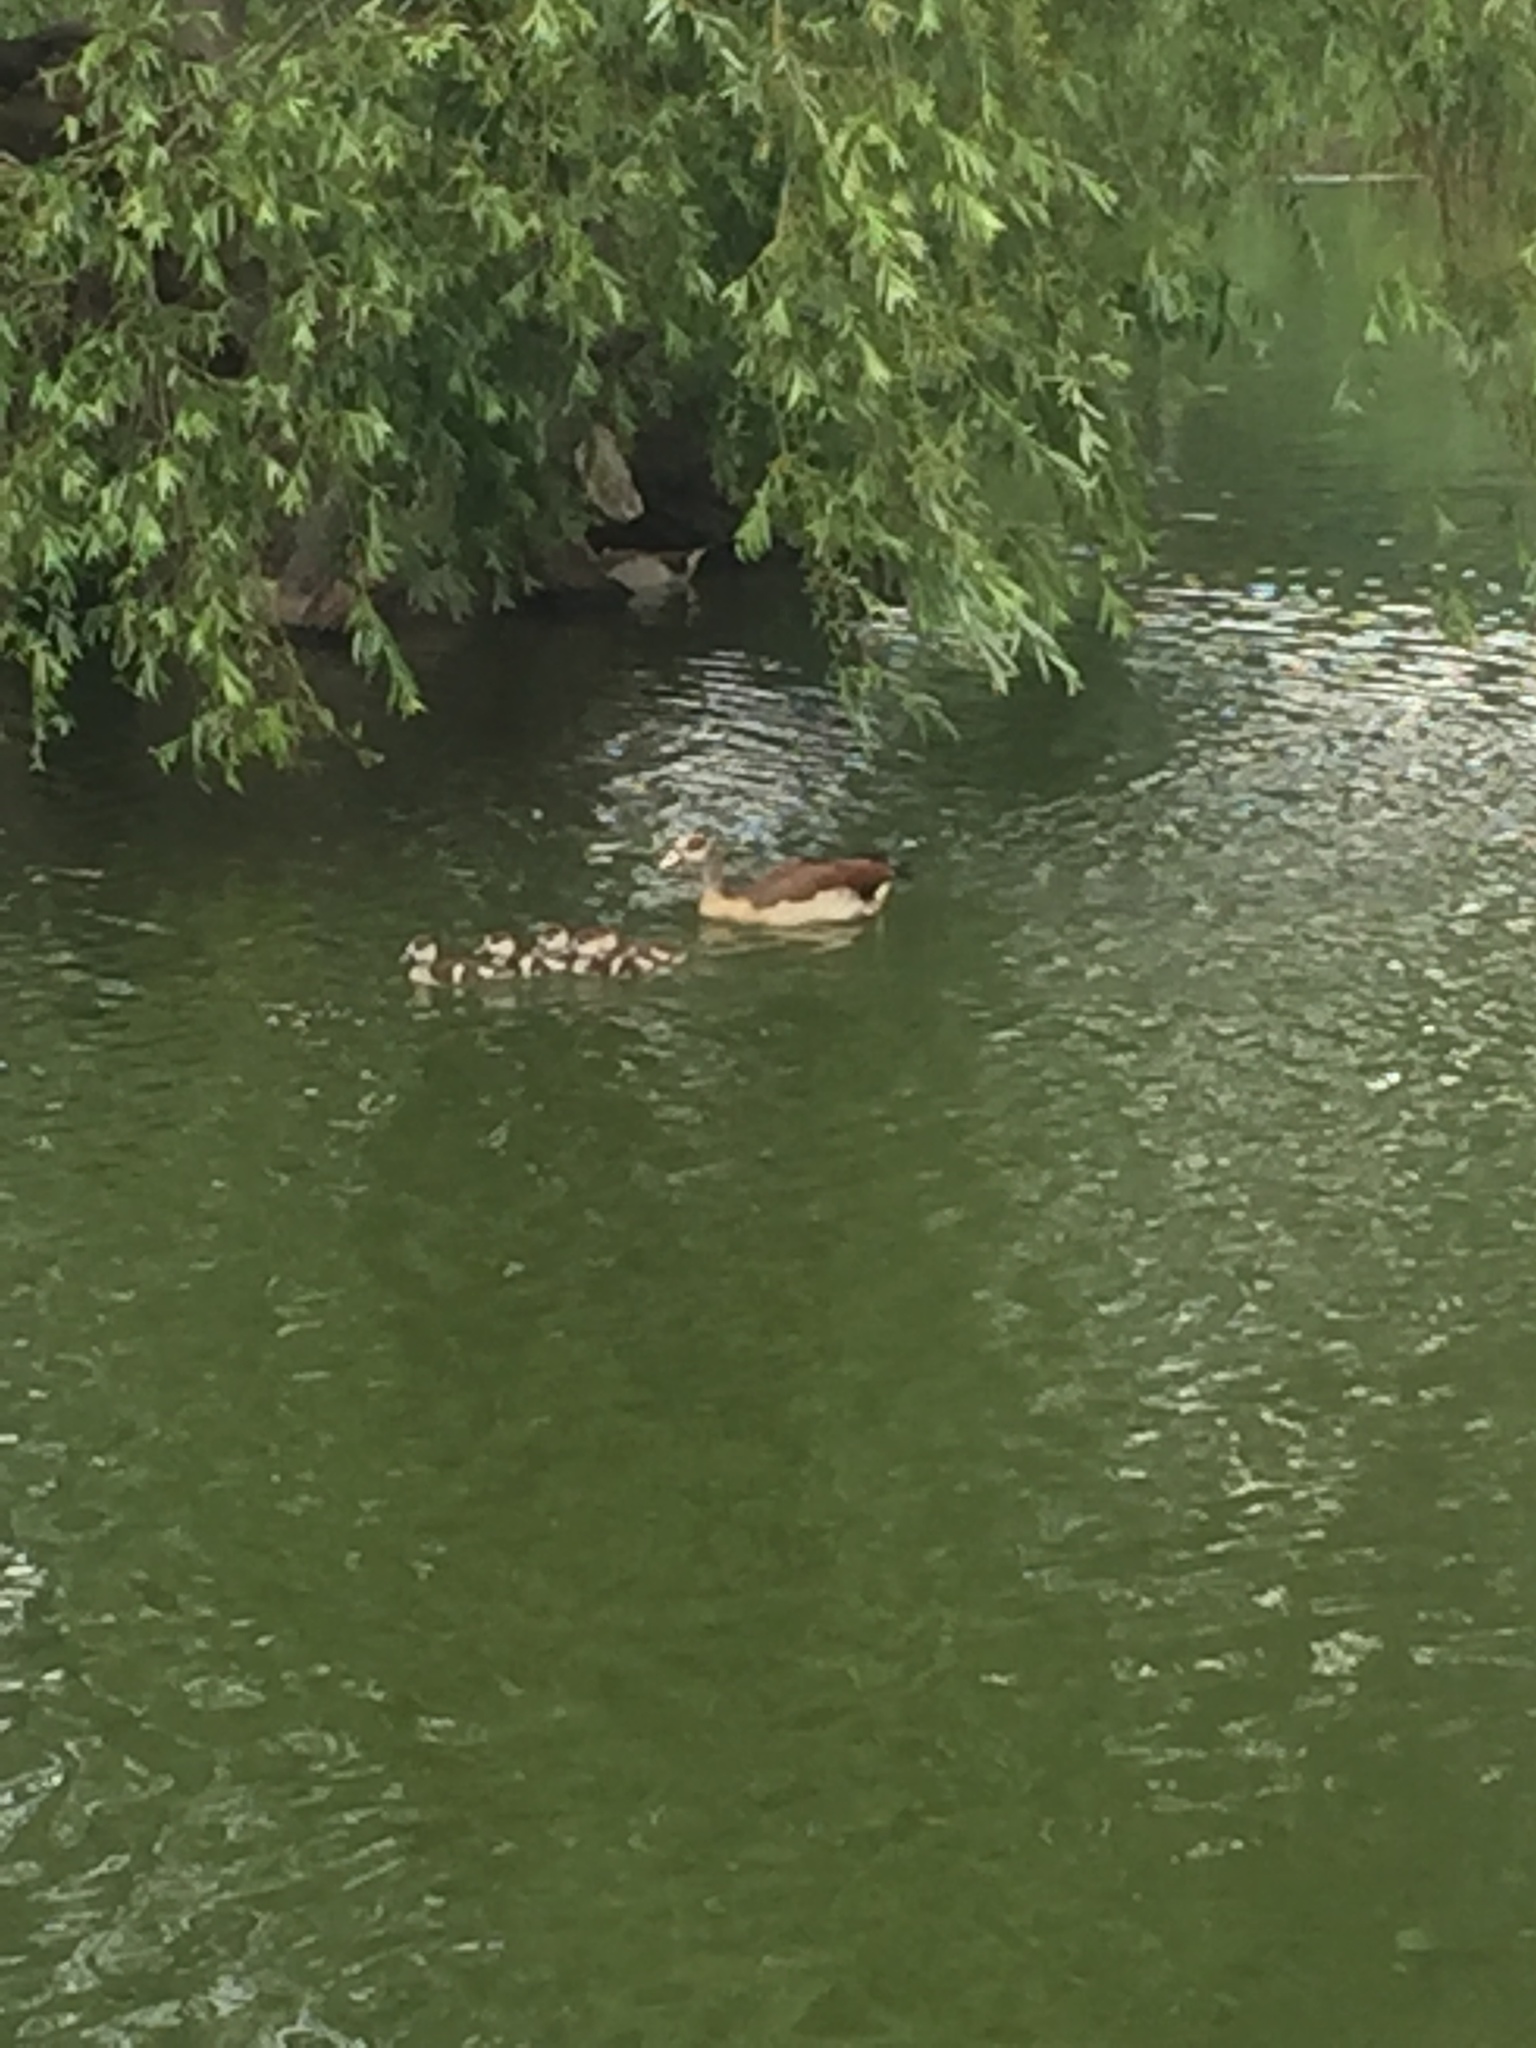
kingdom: Animalia
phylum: Chordata
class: Aves
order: Anseriformes
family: Anatidae
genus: Alopochen
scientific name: Alopochen aegyptiaca
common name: Egyptian goose
